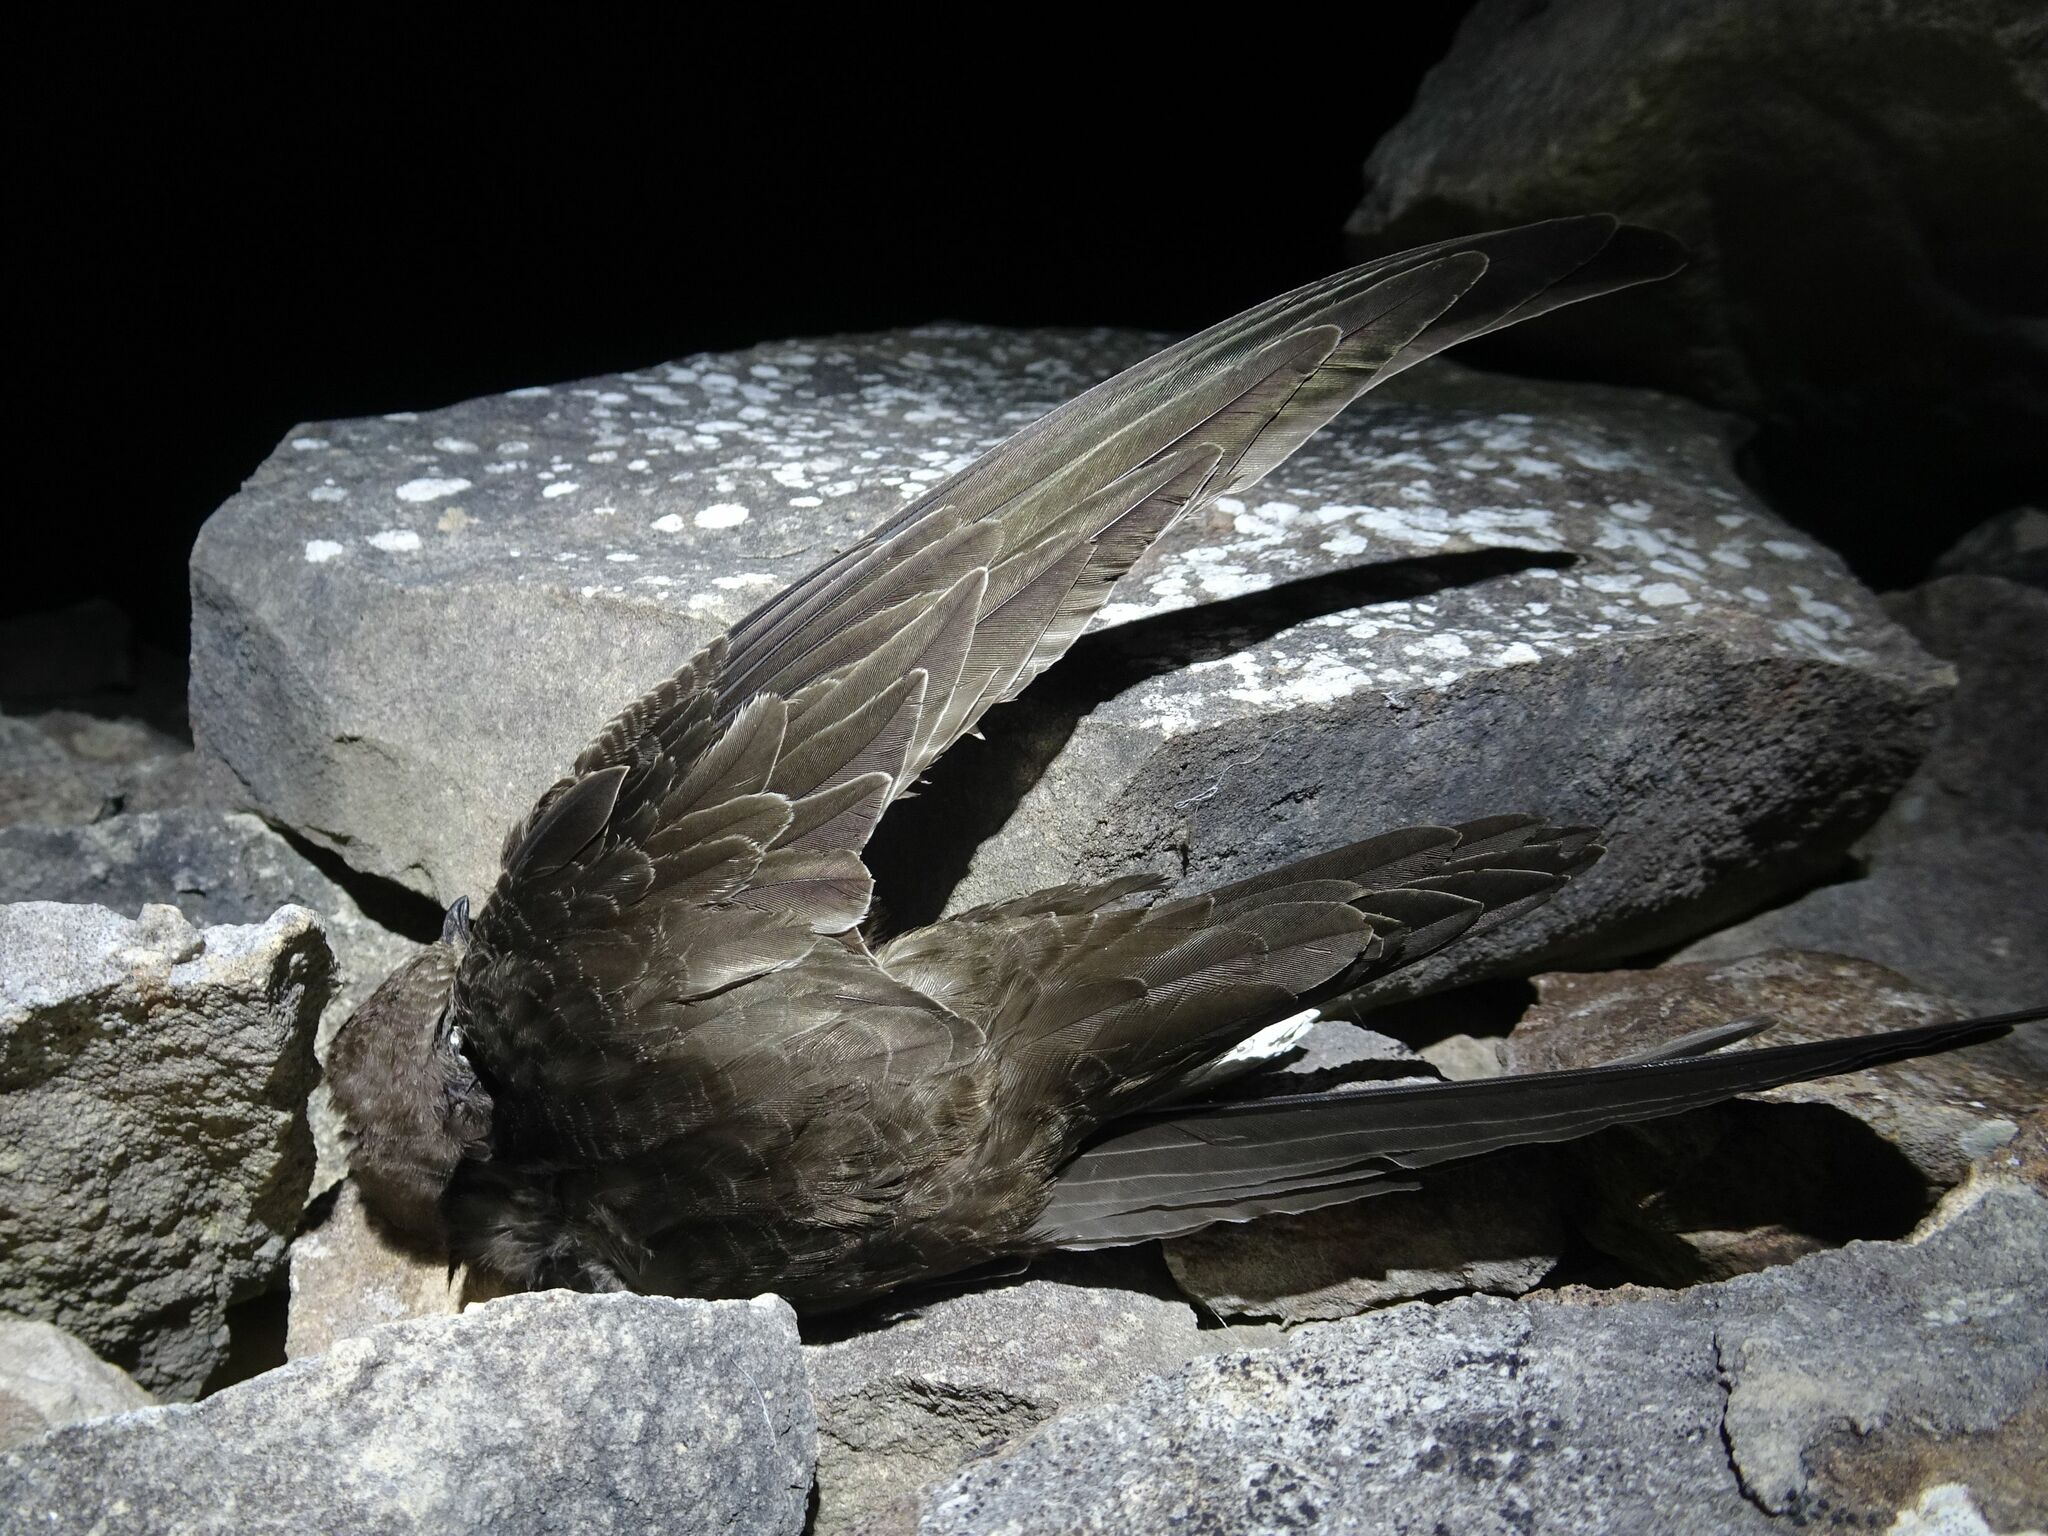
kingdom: Animalia
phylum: Chordata
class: Aves
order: Apodiformes
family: Apodidae
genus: Apus
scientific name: Apus apus
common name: Common swift
